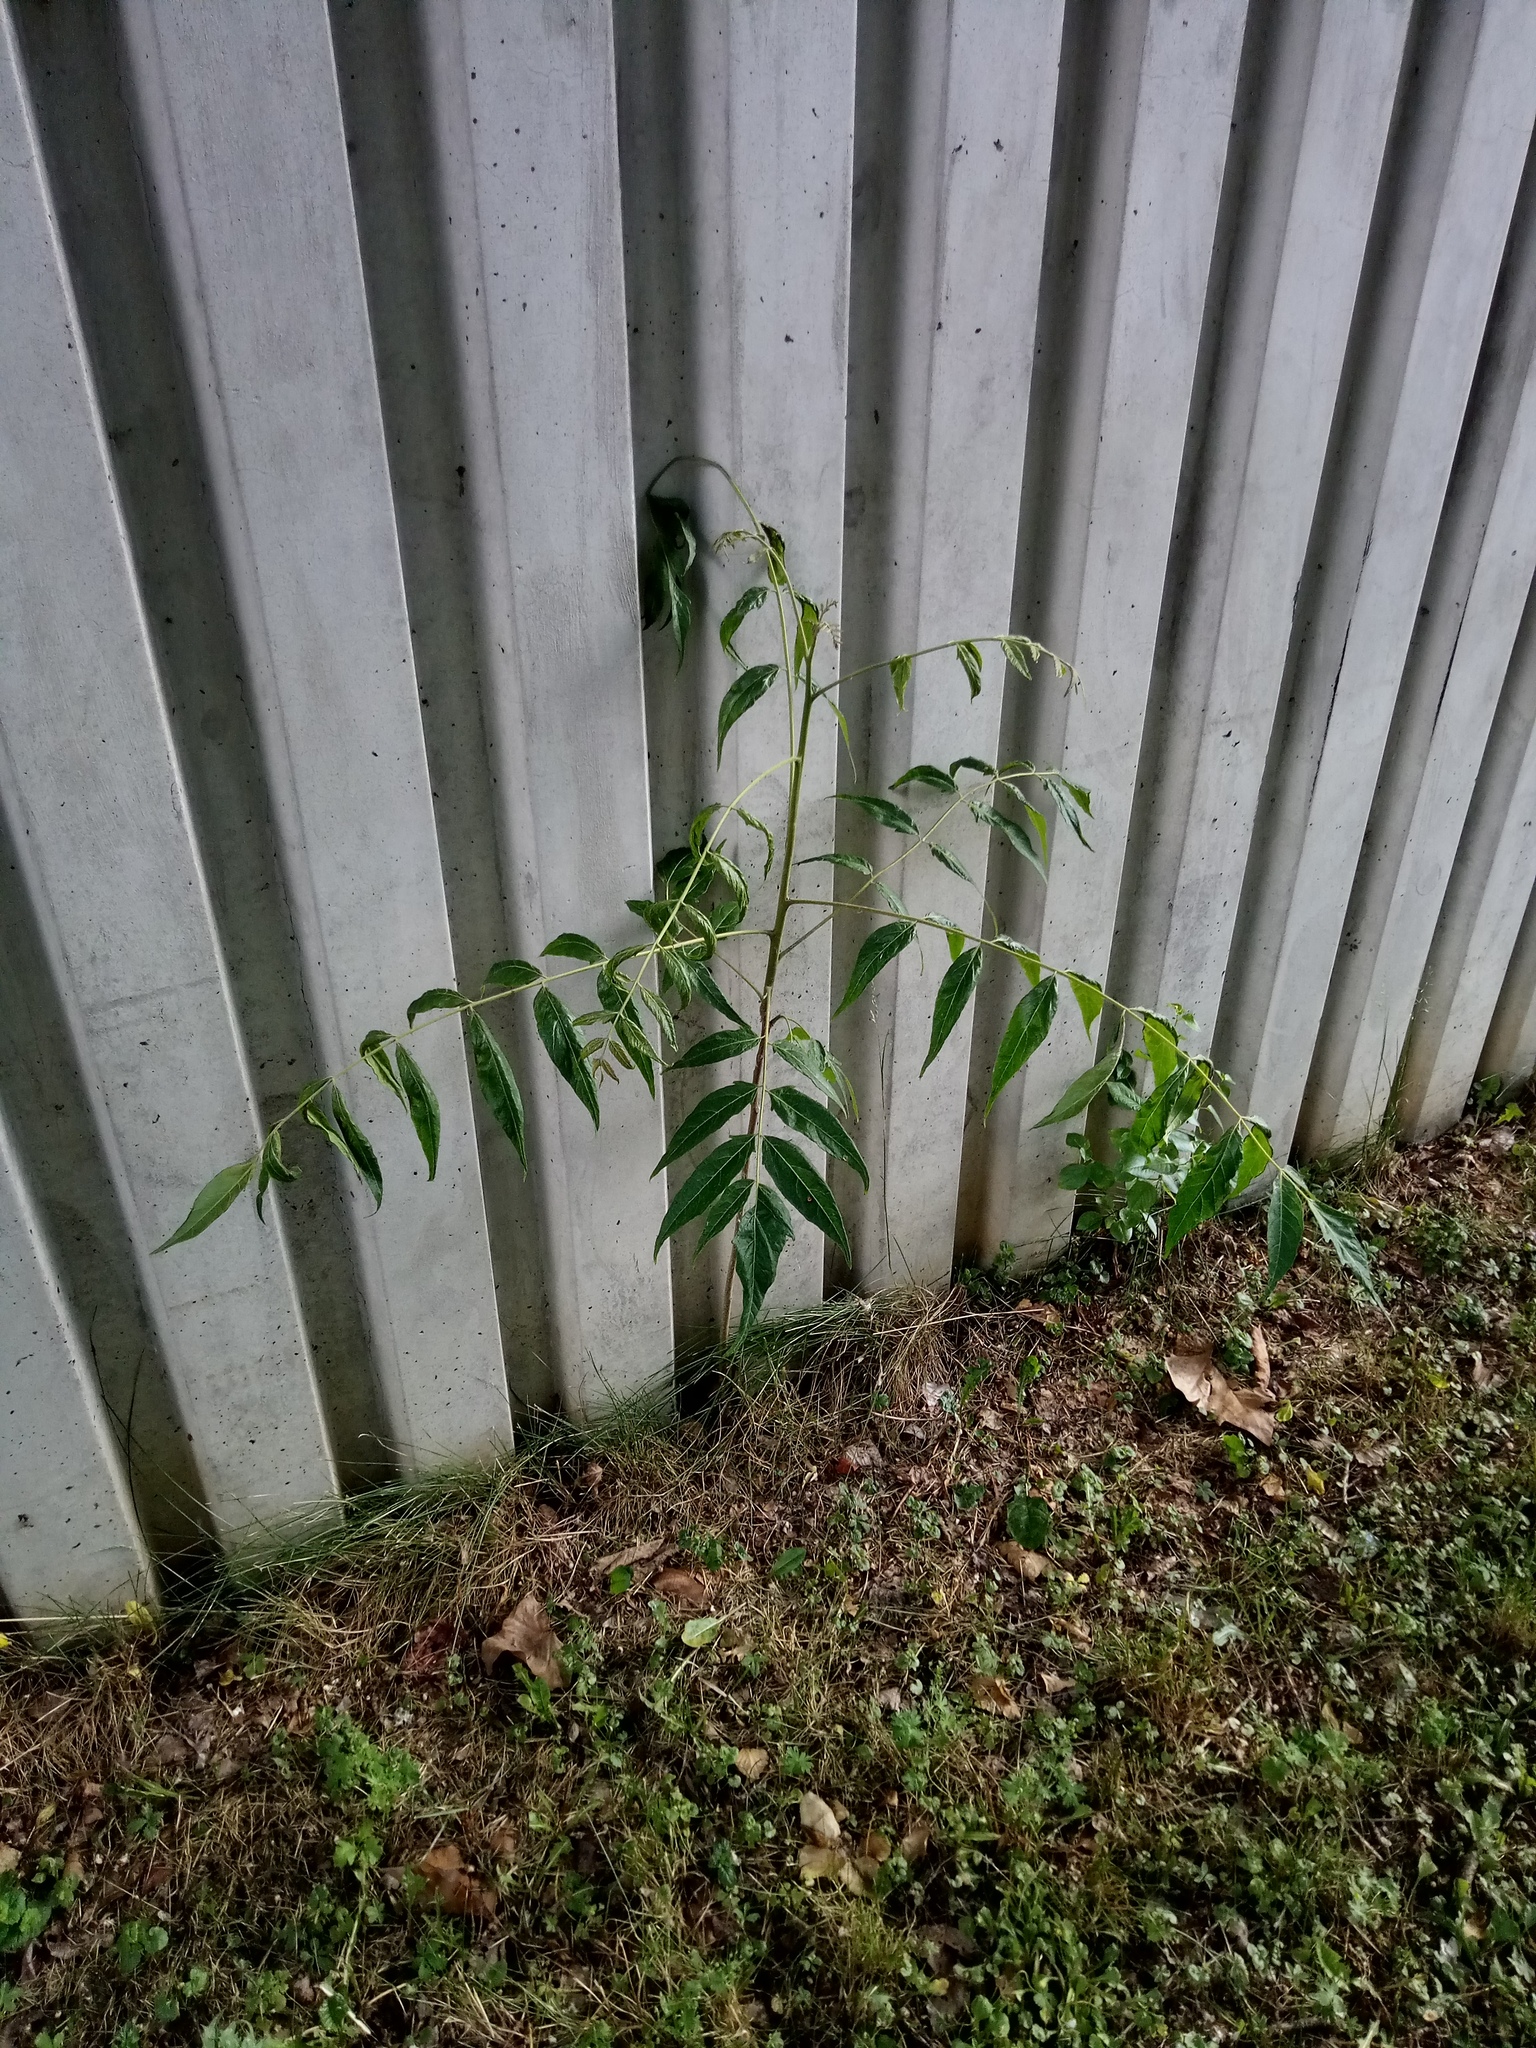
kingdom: Plantae
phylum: Tracheophyta
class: Magnoliopsida
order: Sapindales
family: Simaroubaceae
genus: Ailanthus
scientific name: Ailanthus altissima
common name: Tree-of-heaven
